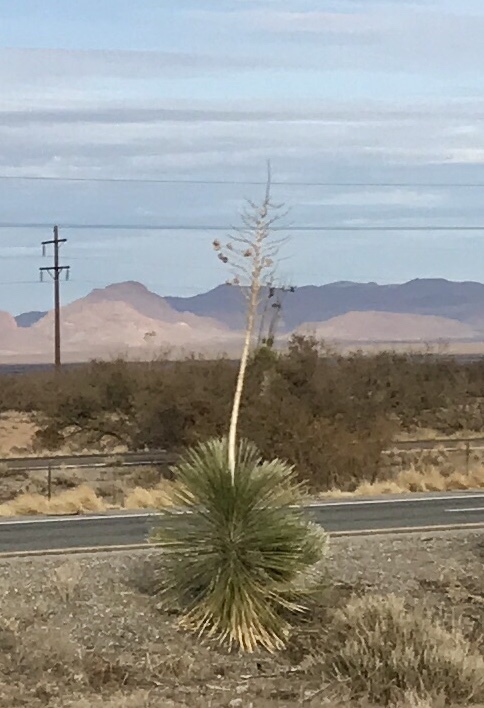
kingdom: Plantae
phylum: Tracheophyta
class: Liliopsida
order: Asparagales
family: Asparagaceae
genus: Yucca
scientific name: Yucca elata
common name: Palmella
